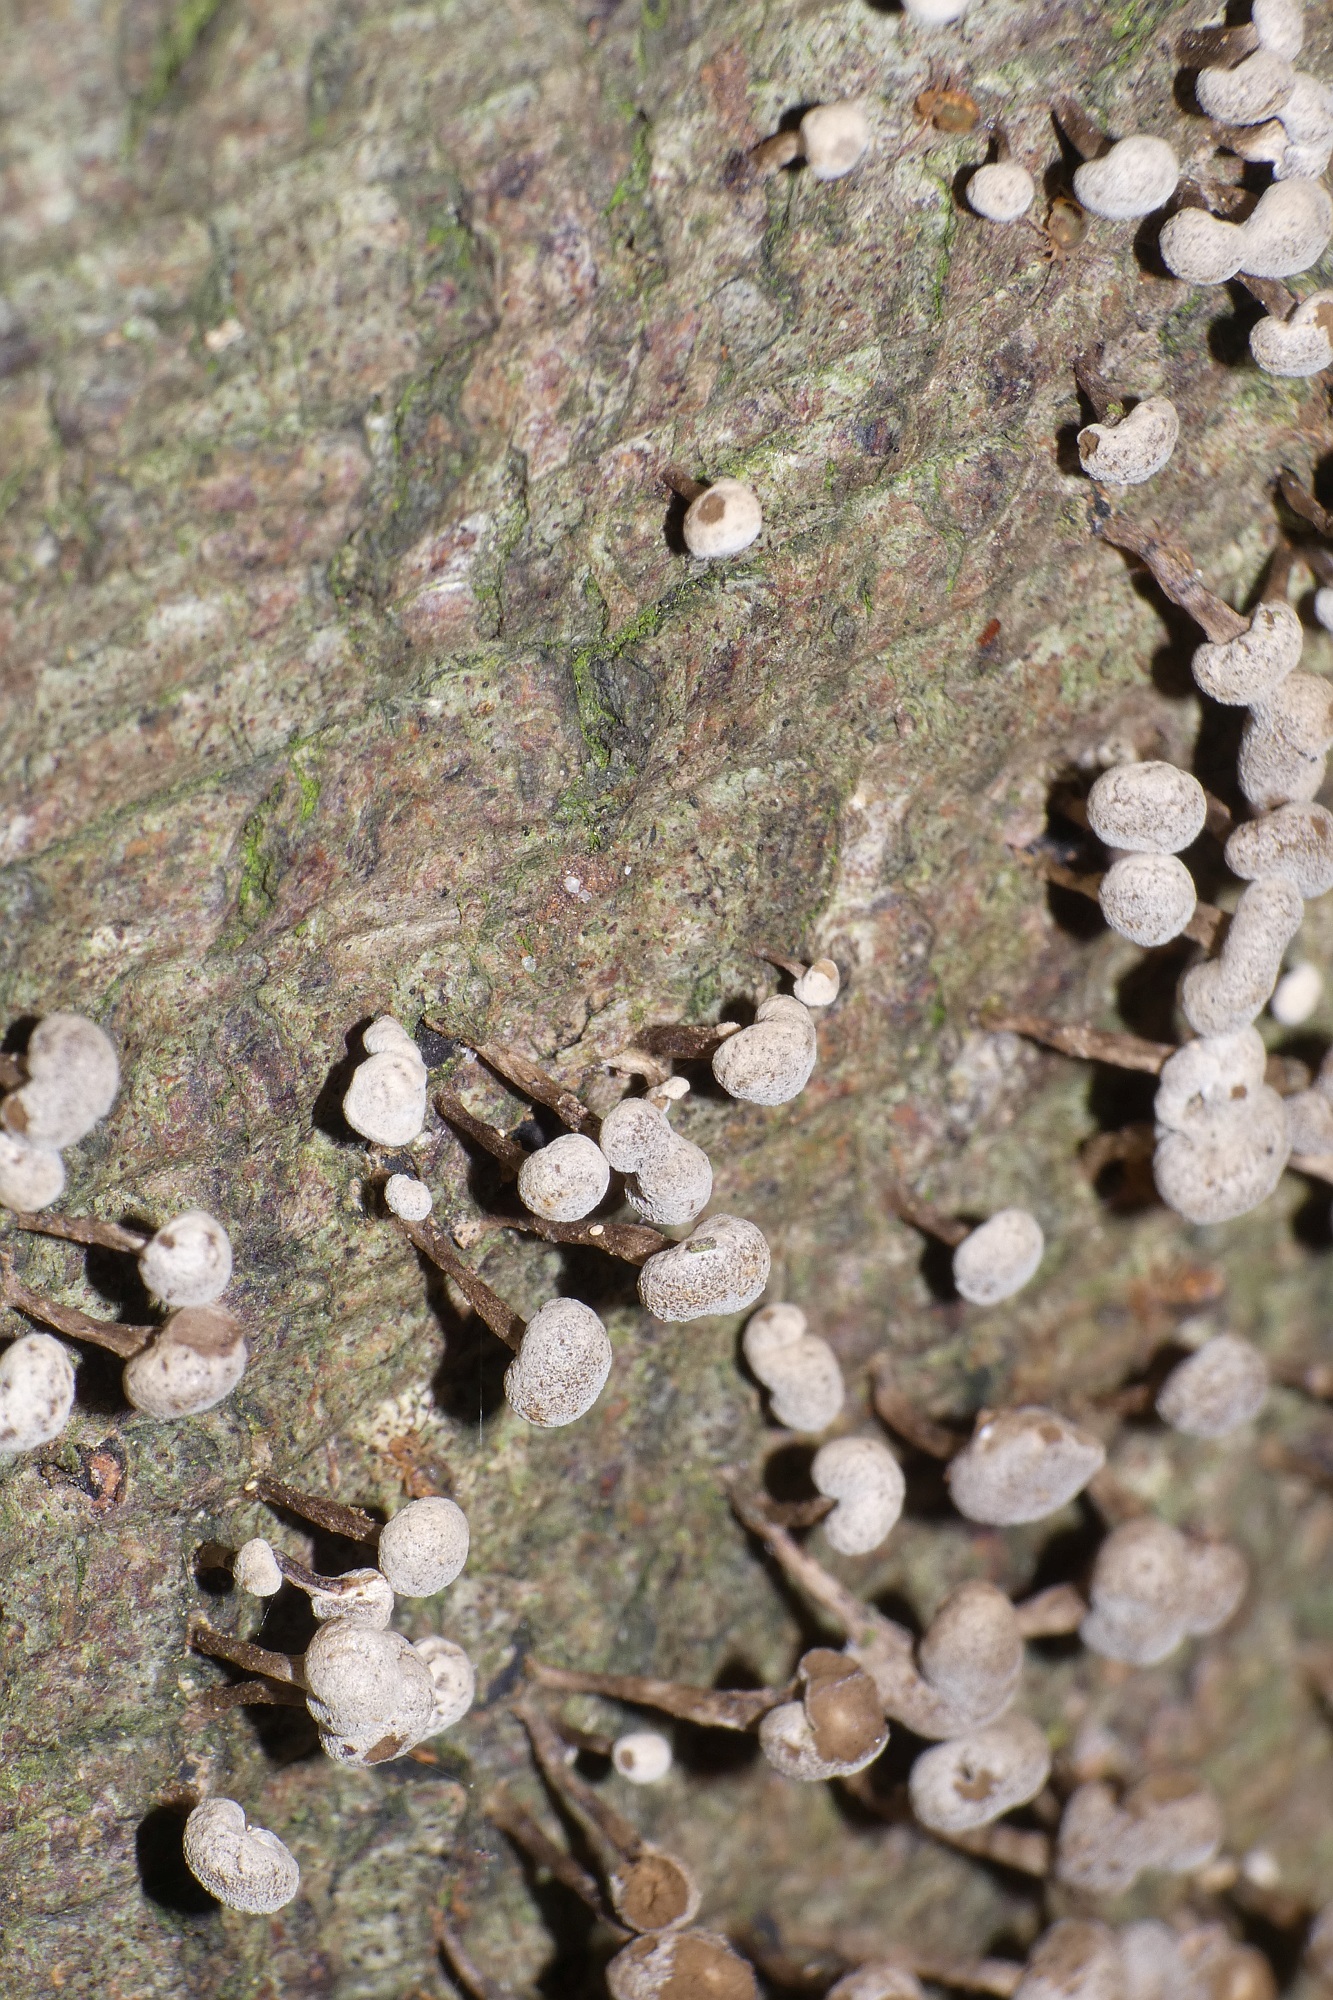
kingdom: Fungi
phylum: Basidiomycota
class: Atractiellomycetes
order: Atractiellales
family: Phleogenaceae
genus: Phleogena
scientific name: Phleogena faginea
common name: Fenugreek stalkball
